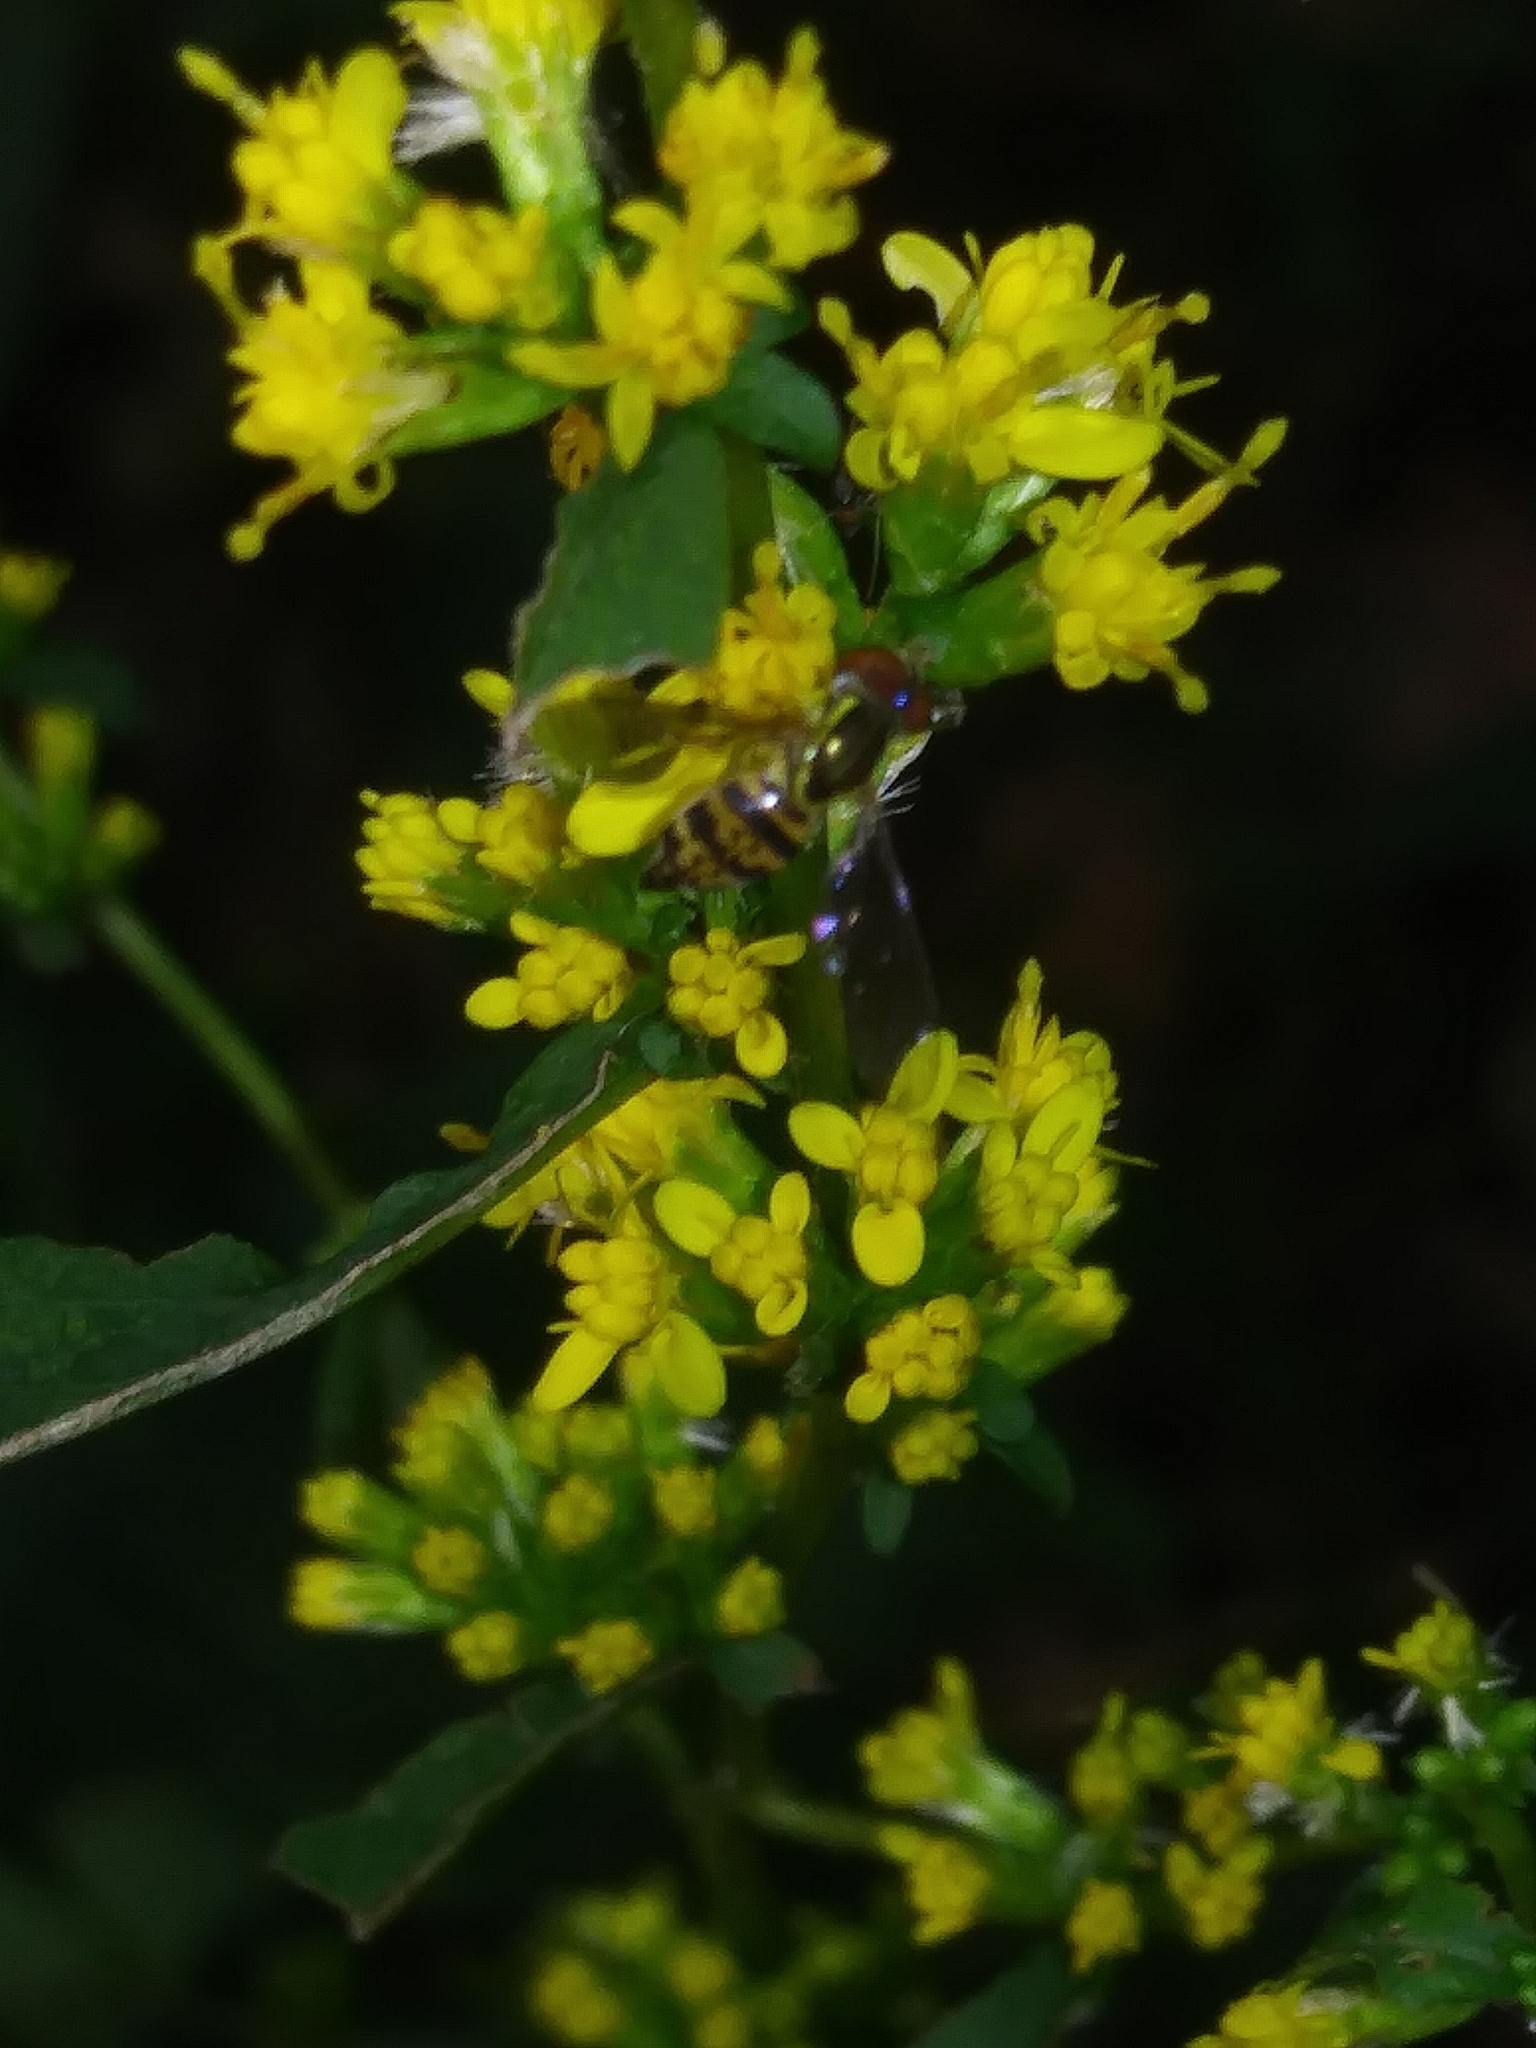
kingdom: Animalia
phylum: Arthropoda
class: Insecta
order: Diptera
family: Syrphidae
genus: Toxomerus
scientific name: Toxomerus geminatus
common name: Eastern calligrapher
